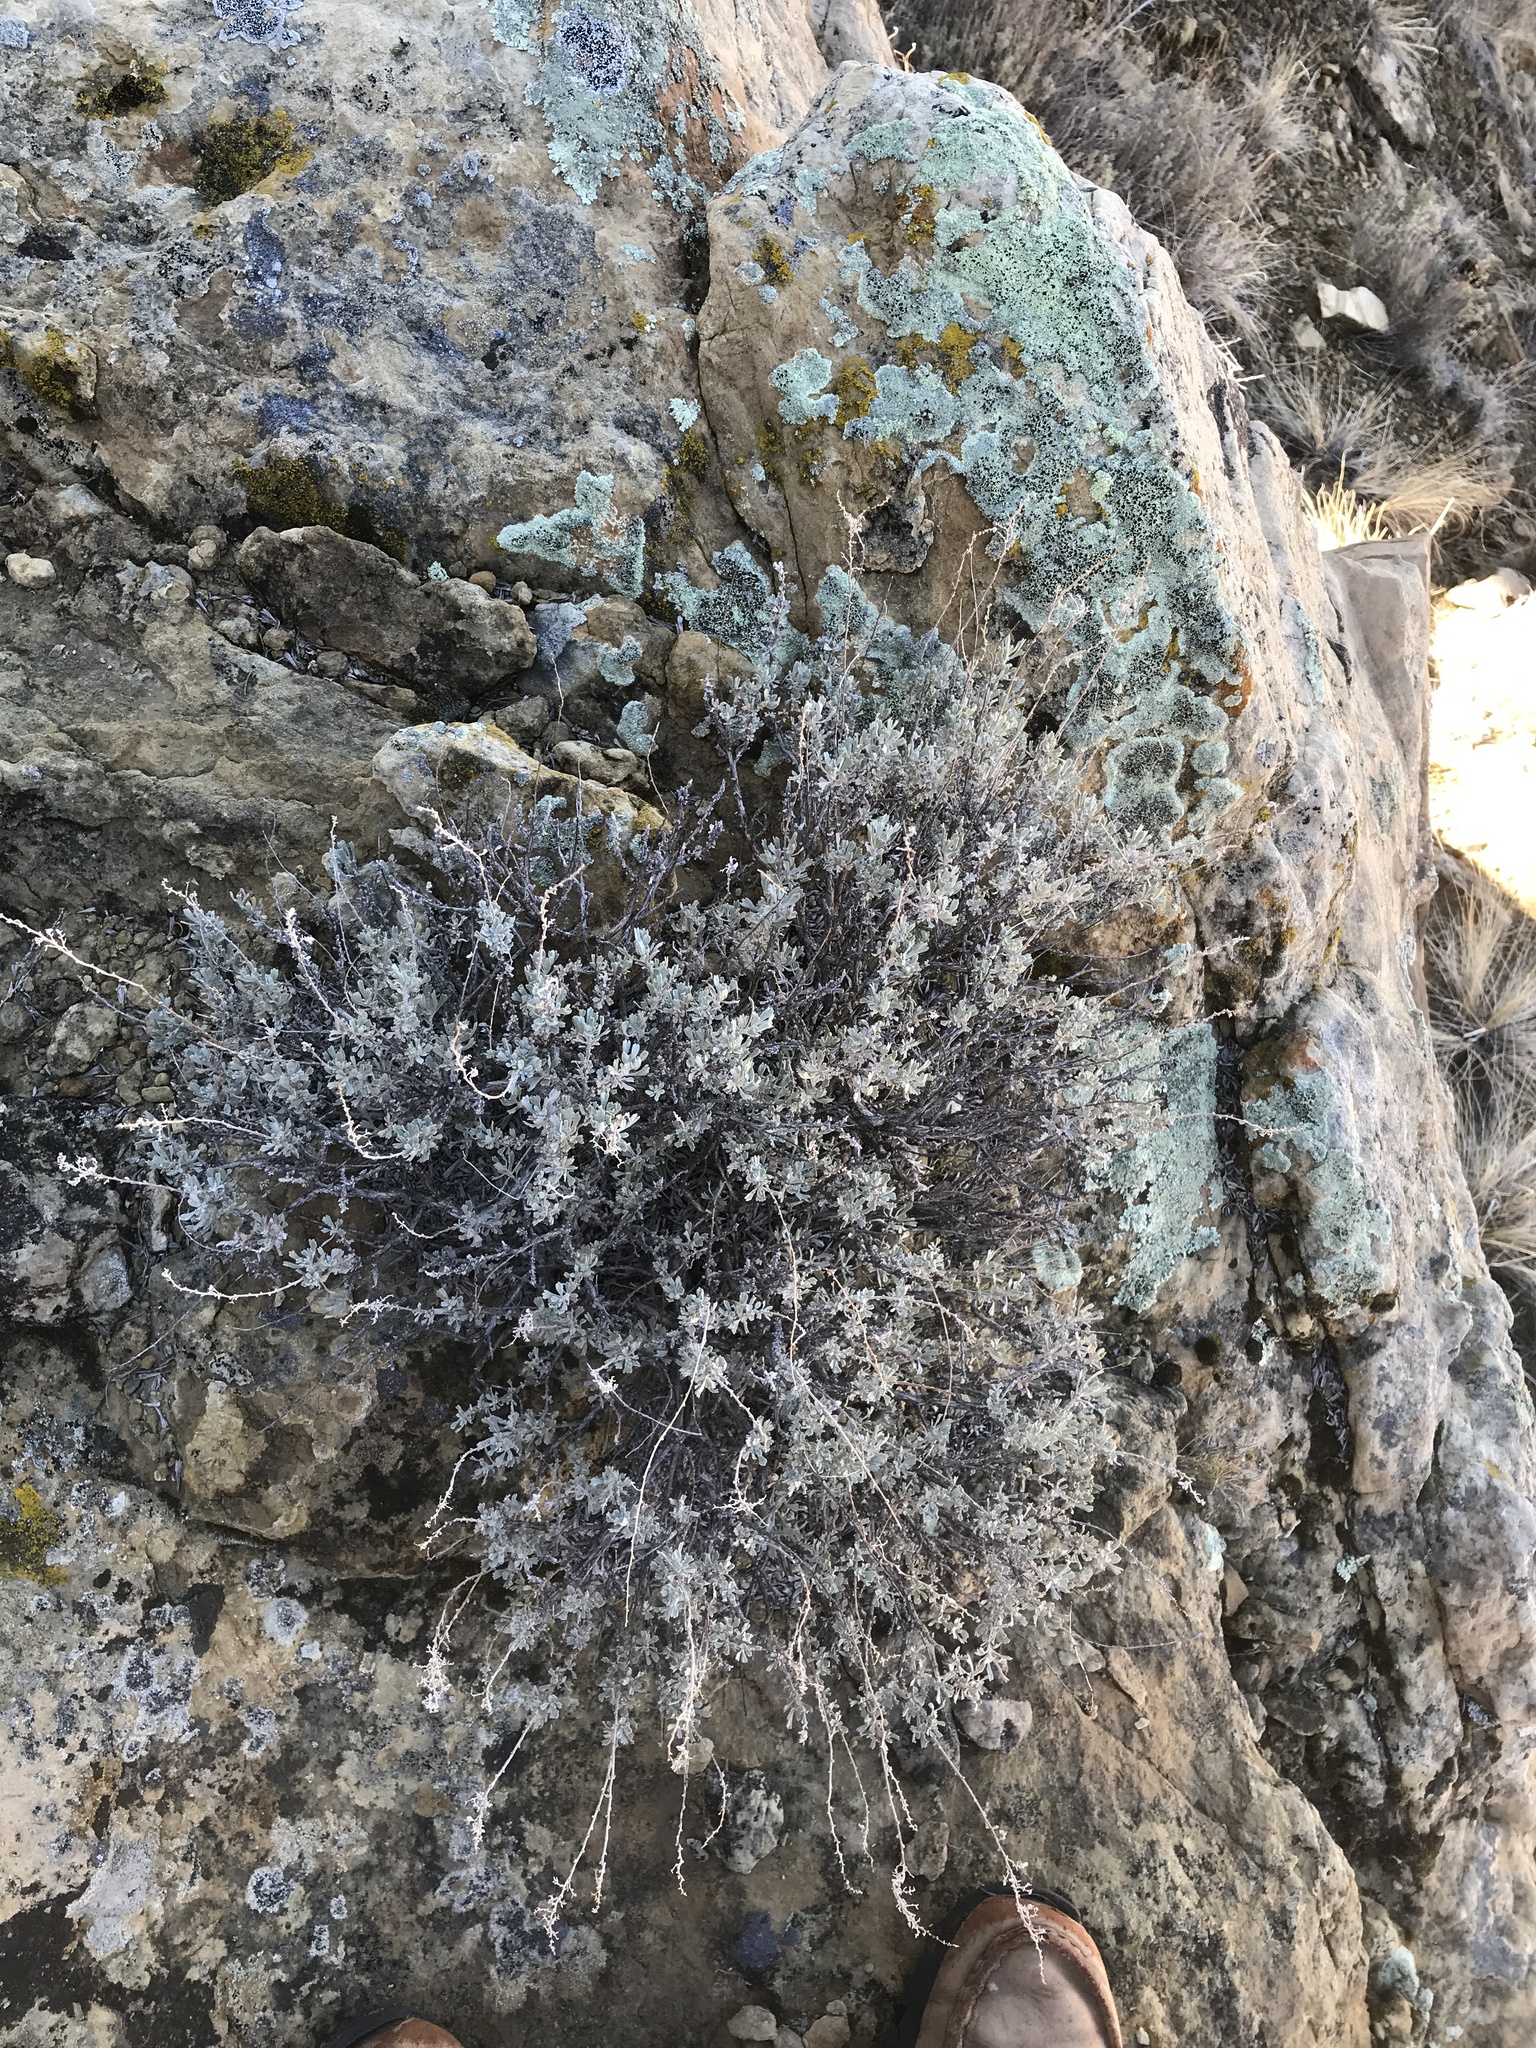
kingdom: Plantae
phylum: Tracheophyta
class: Magnoliopsida
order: Asterales
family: Asteraceae
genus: Artemisia
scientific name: Artemisia tridentata
